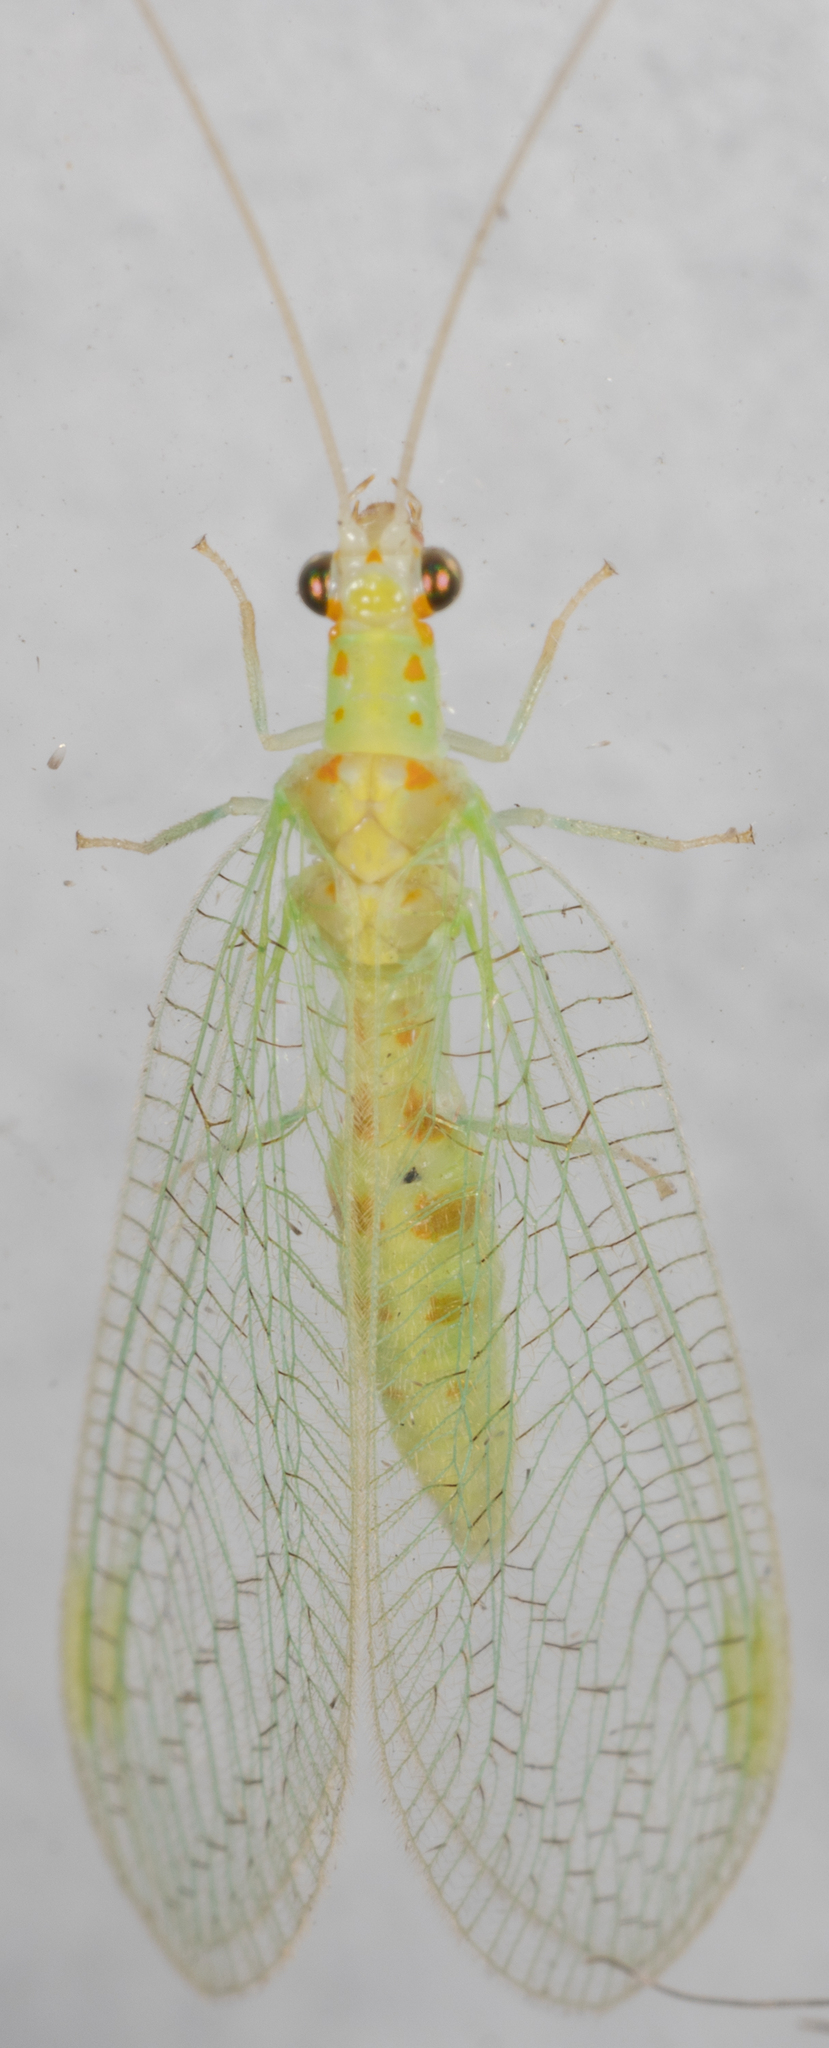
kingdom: Animalia
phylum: Arthropoda
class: Insecta
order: Neuroptera
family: Chrysopidae
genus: Chrysopa
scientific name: Chrysopa quadripunctata
